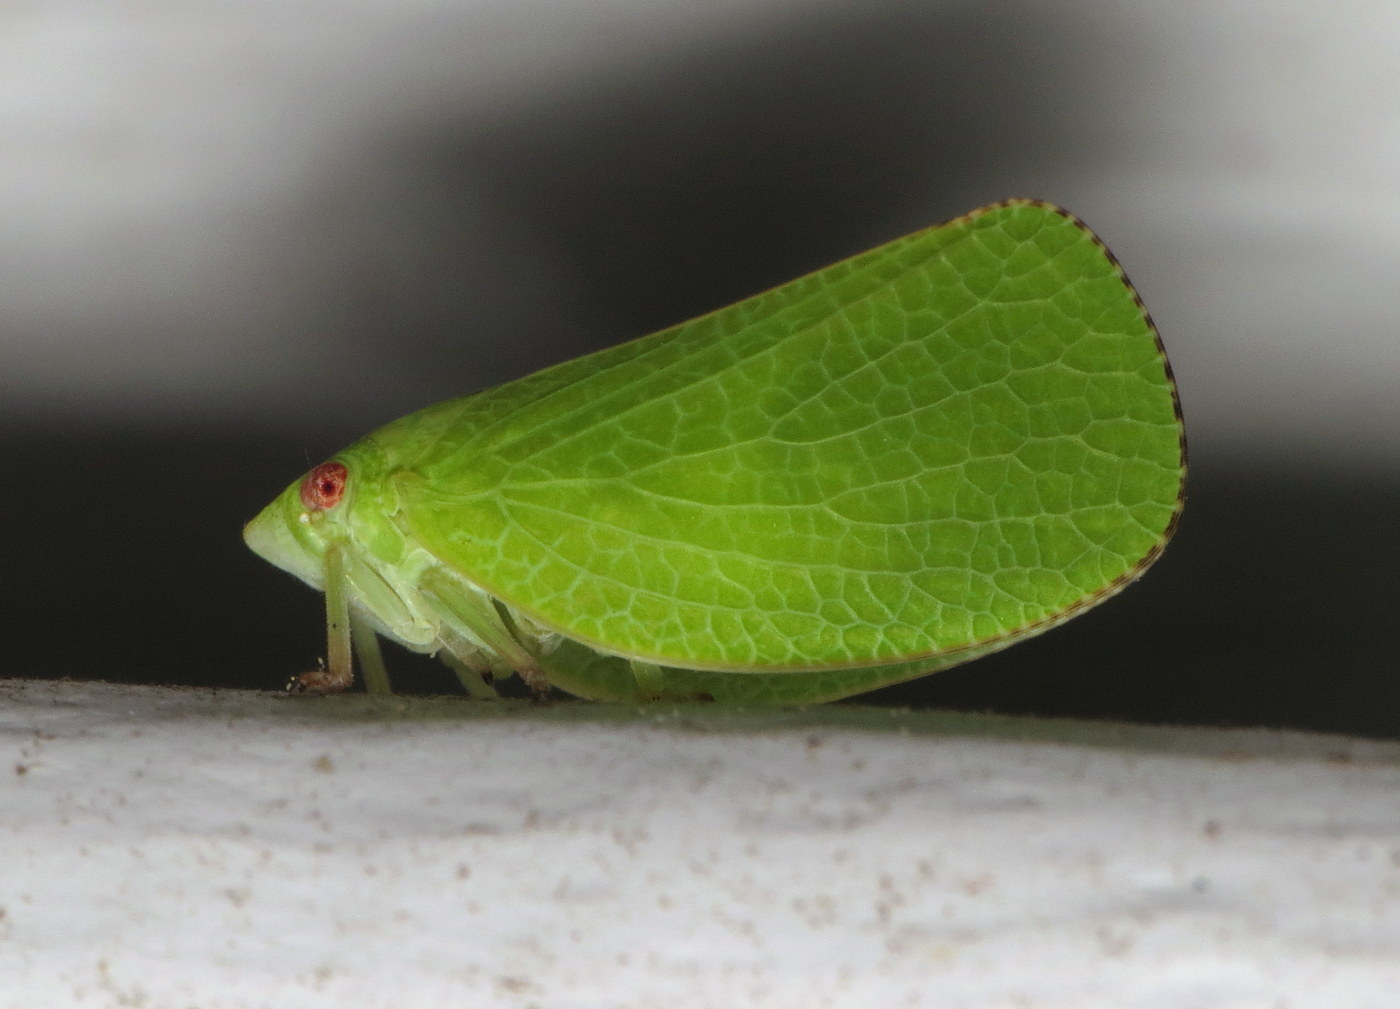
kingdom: Animalia
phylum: Arthropoda
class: Insecta
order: Hemiptera
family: Acanaloniidae
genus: Acanalonia
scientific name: Acanalonia conica
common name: Green cone-headed planthopper
